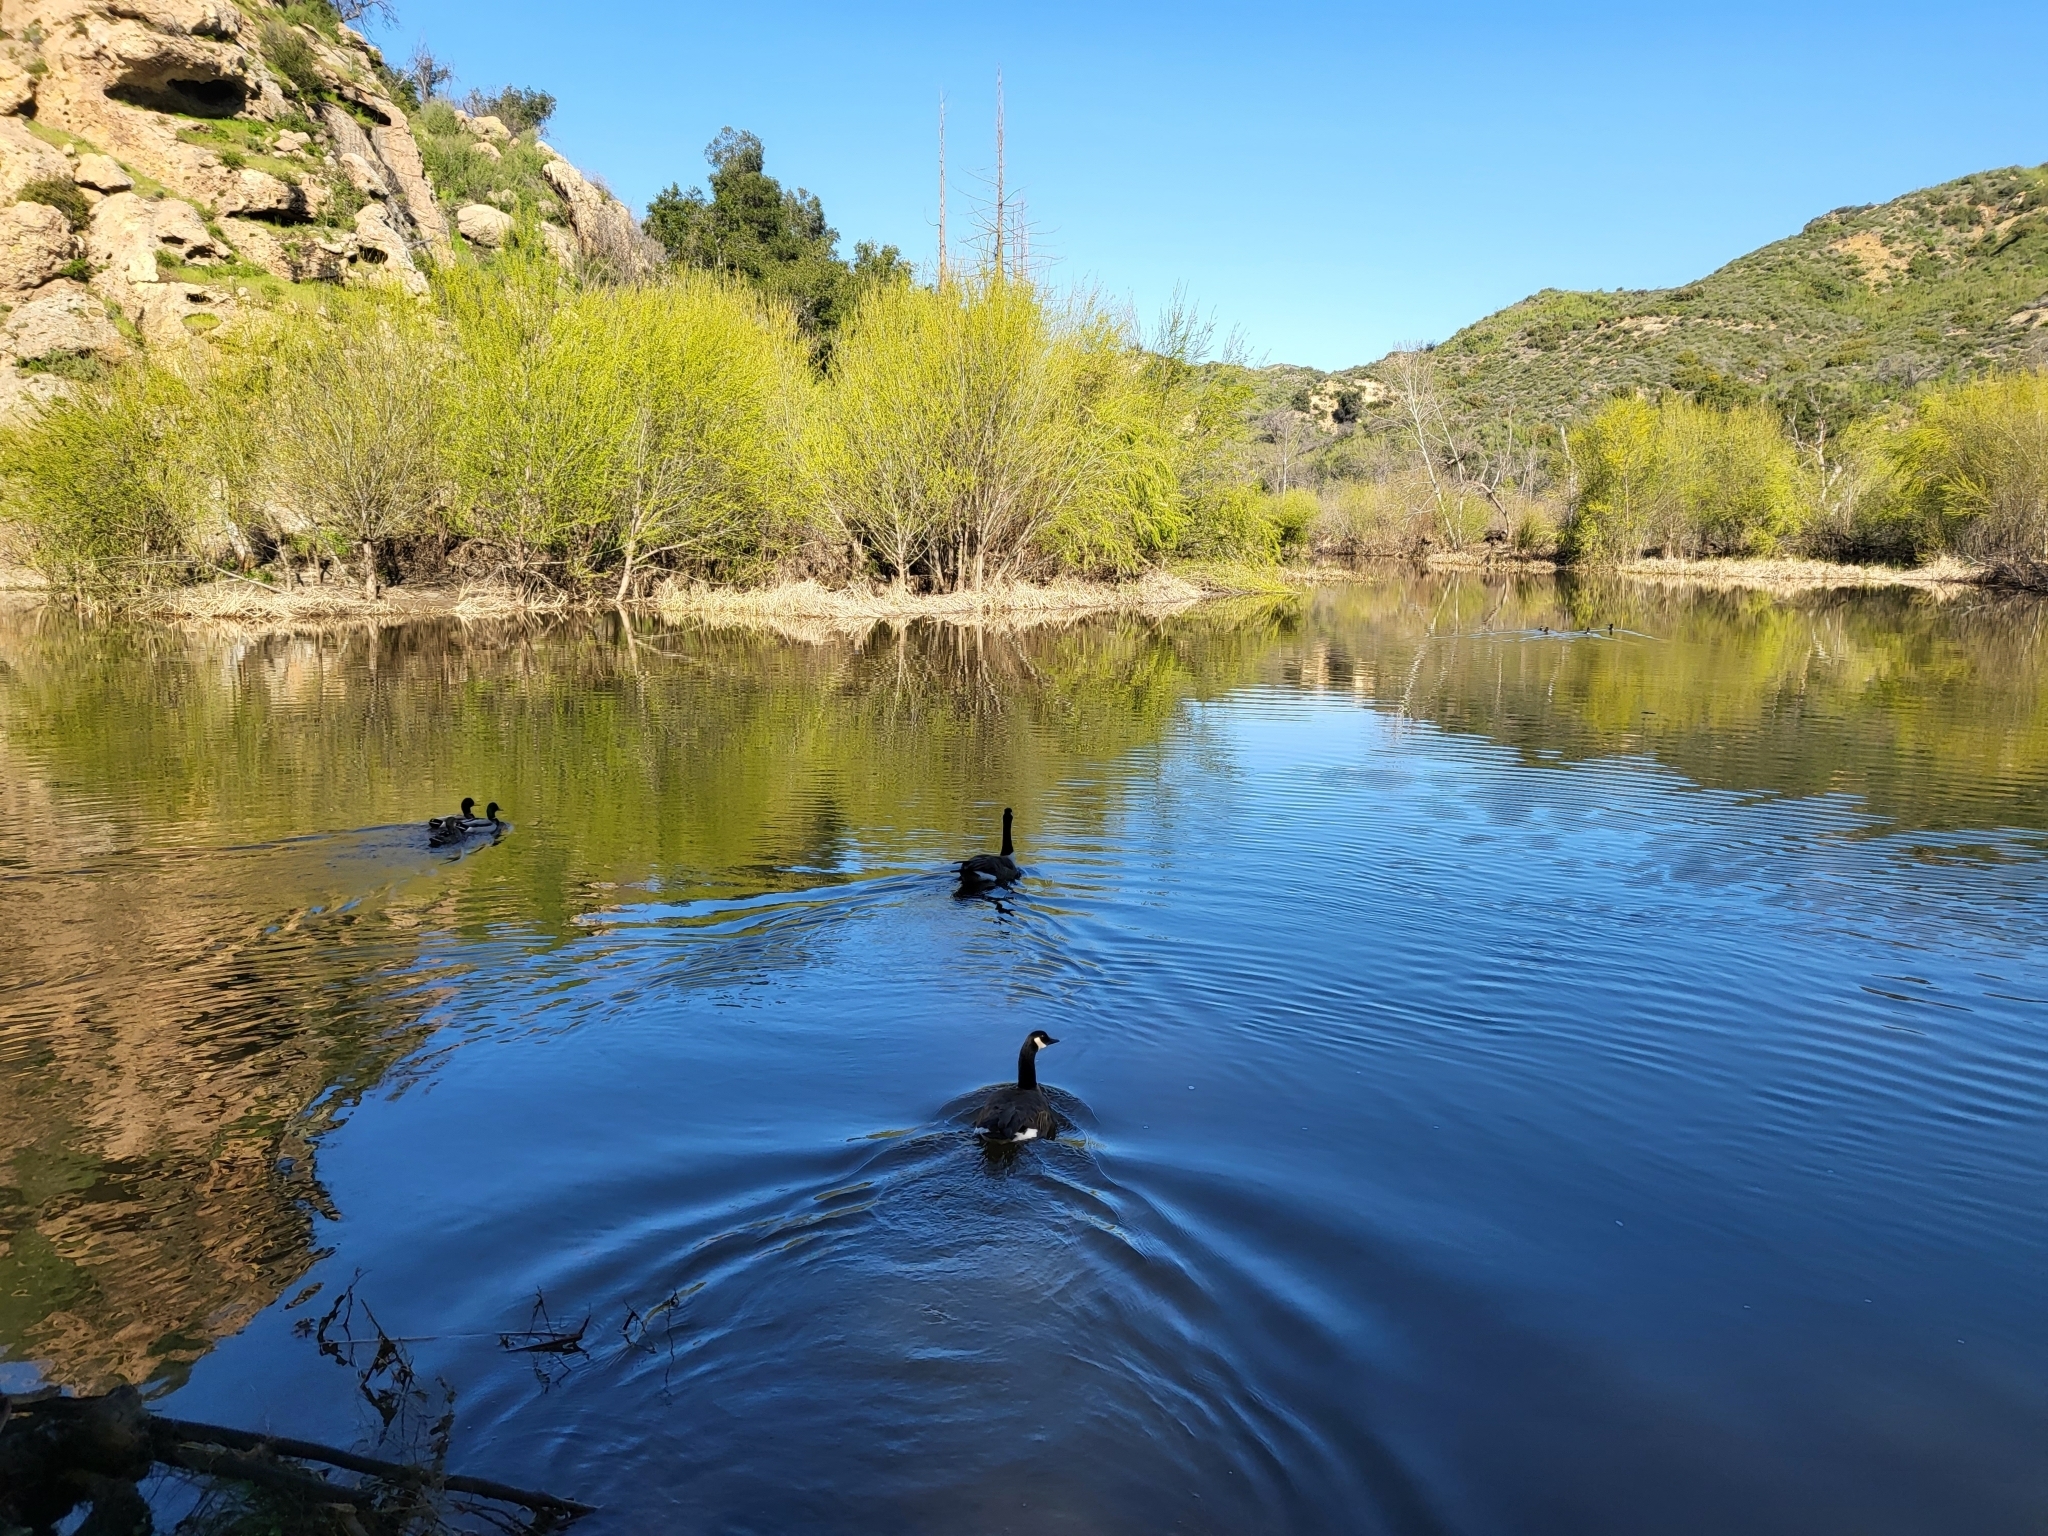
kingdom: Animalia
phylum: Chordata
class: Aves
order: Anseriformes
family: Anatidae
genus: Anas
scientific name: Anas platyrhynchos
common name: Mallard
